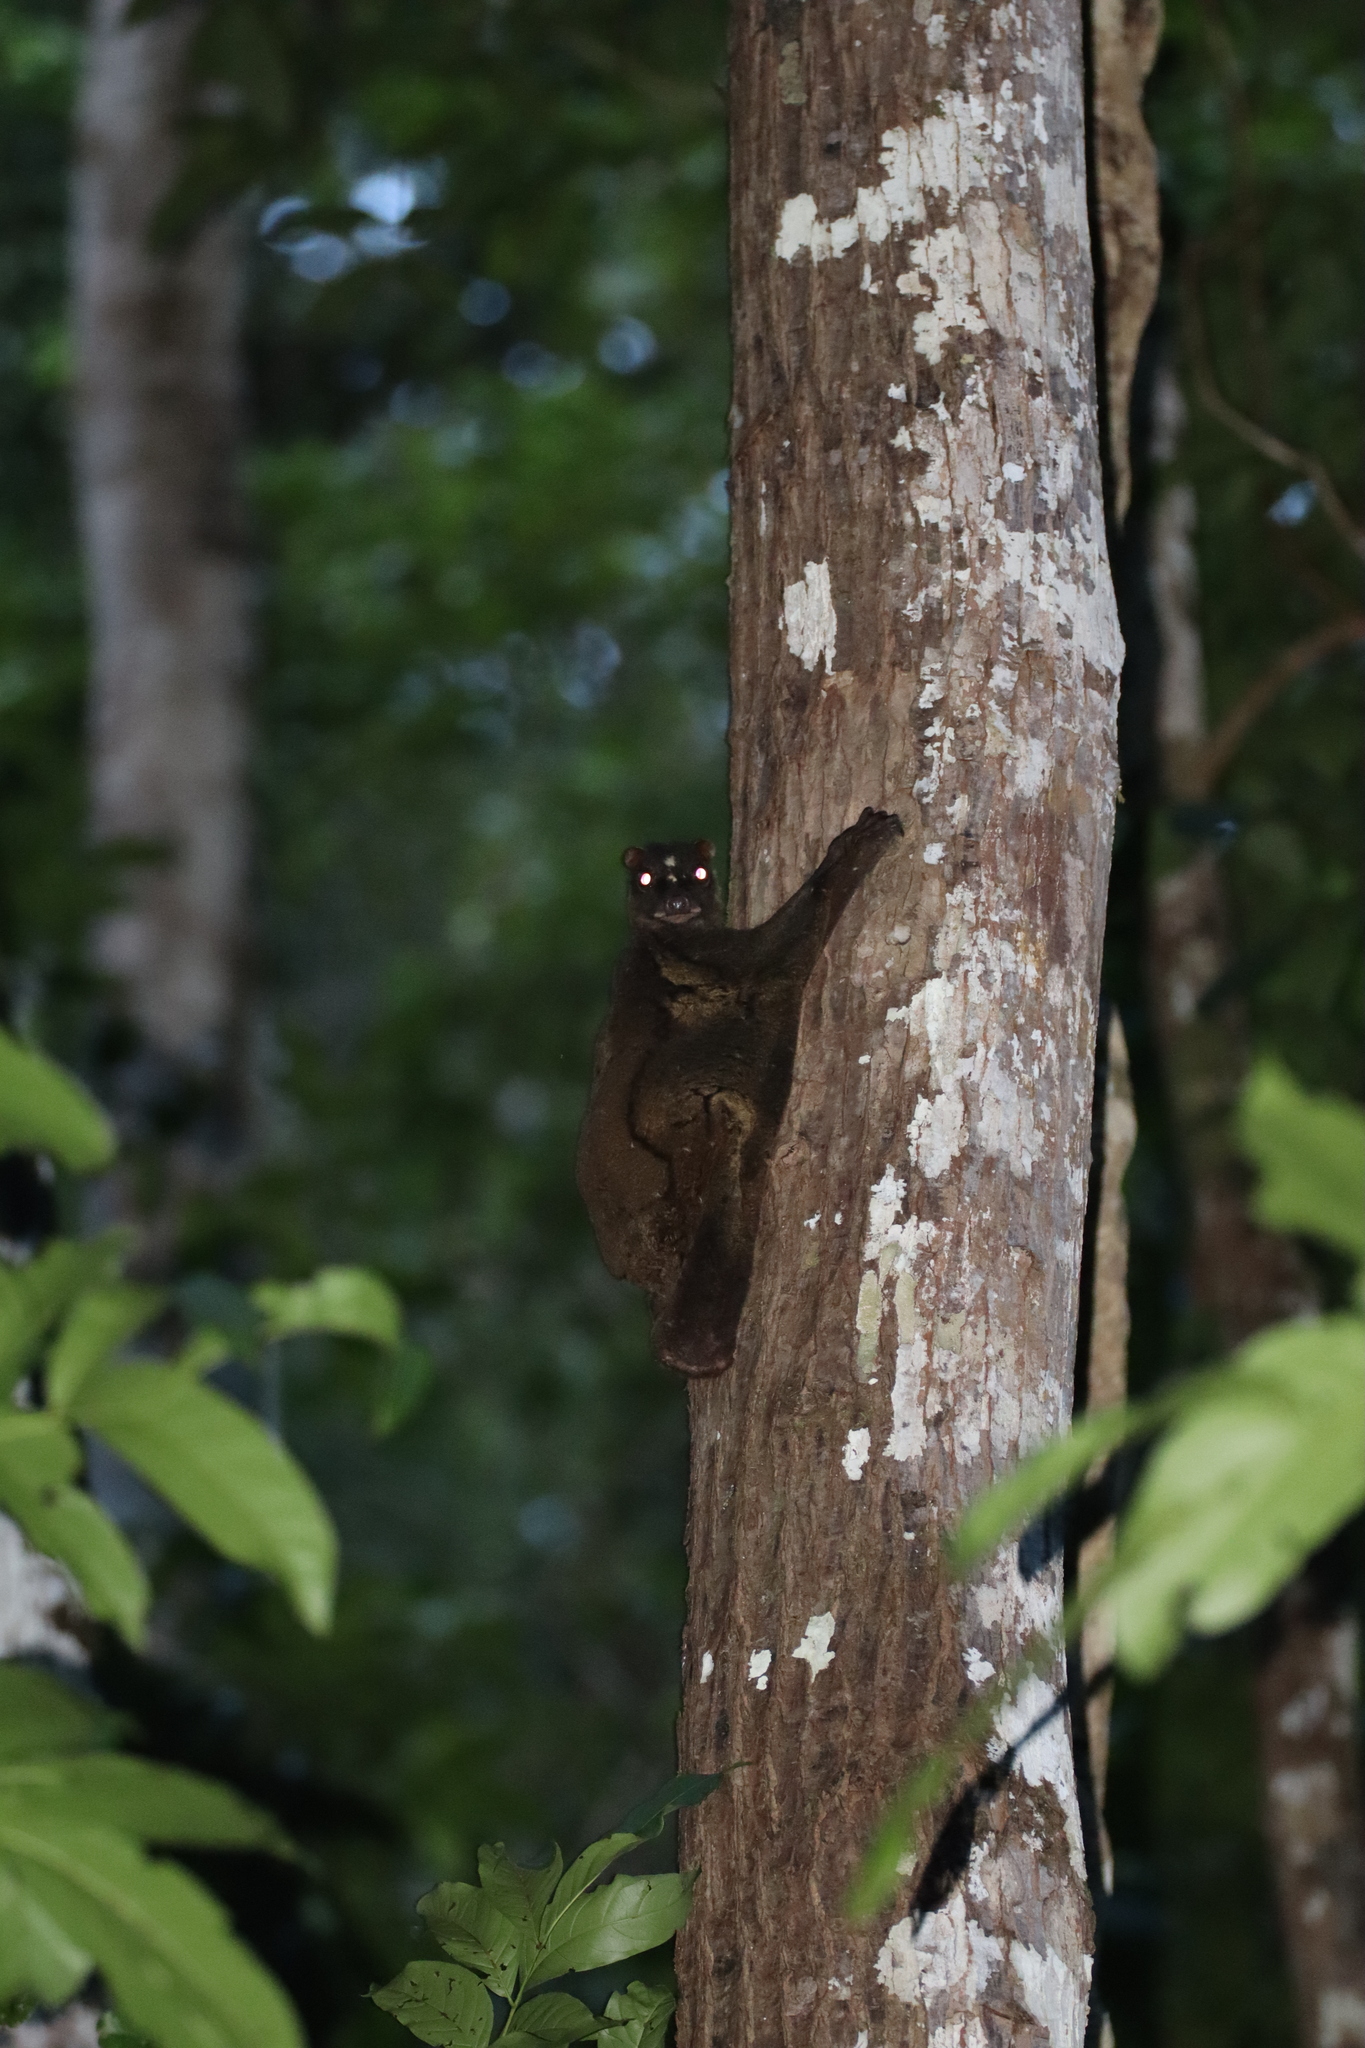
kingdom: Animalia
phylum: Chordata
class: Mammalia
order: Dermoptera
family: Cynocephalidae
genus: Cynocephalus
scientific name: Cynocephalus volans
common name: Philippine flying lemur
